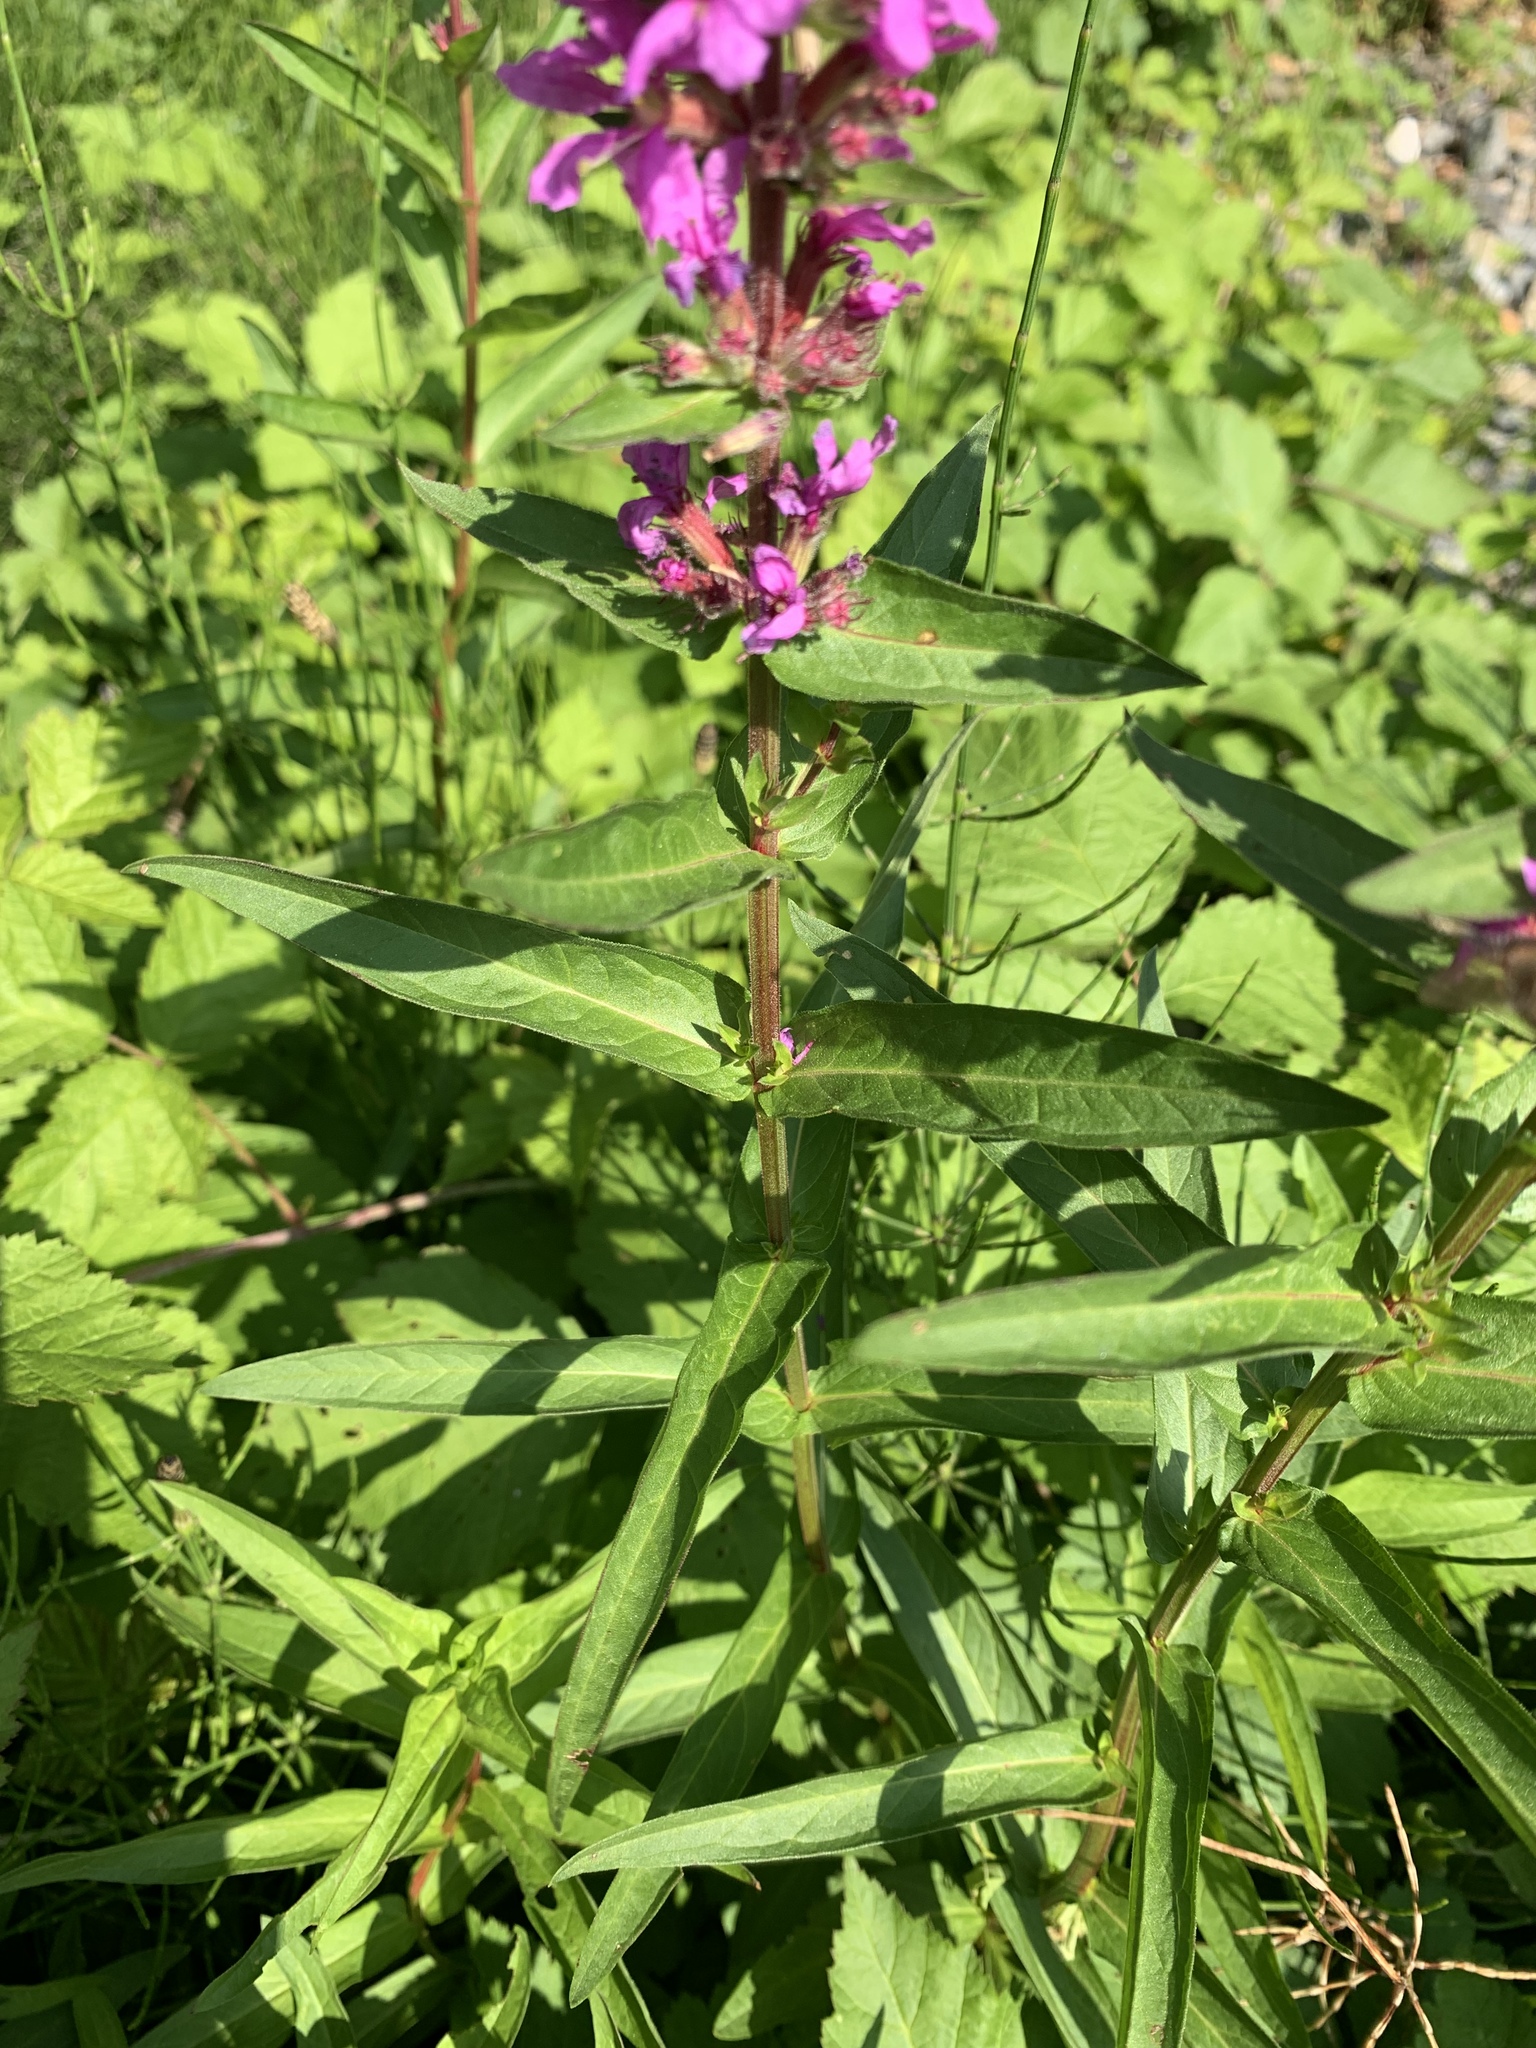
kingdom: Plantae
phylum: Tracheophyta
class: Magnoliopsida
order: Myrtales
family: Lythraceae
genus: Lythrum
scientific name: Lythrum salicaria
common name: Purple loosestrife
